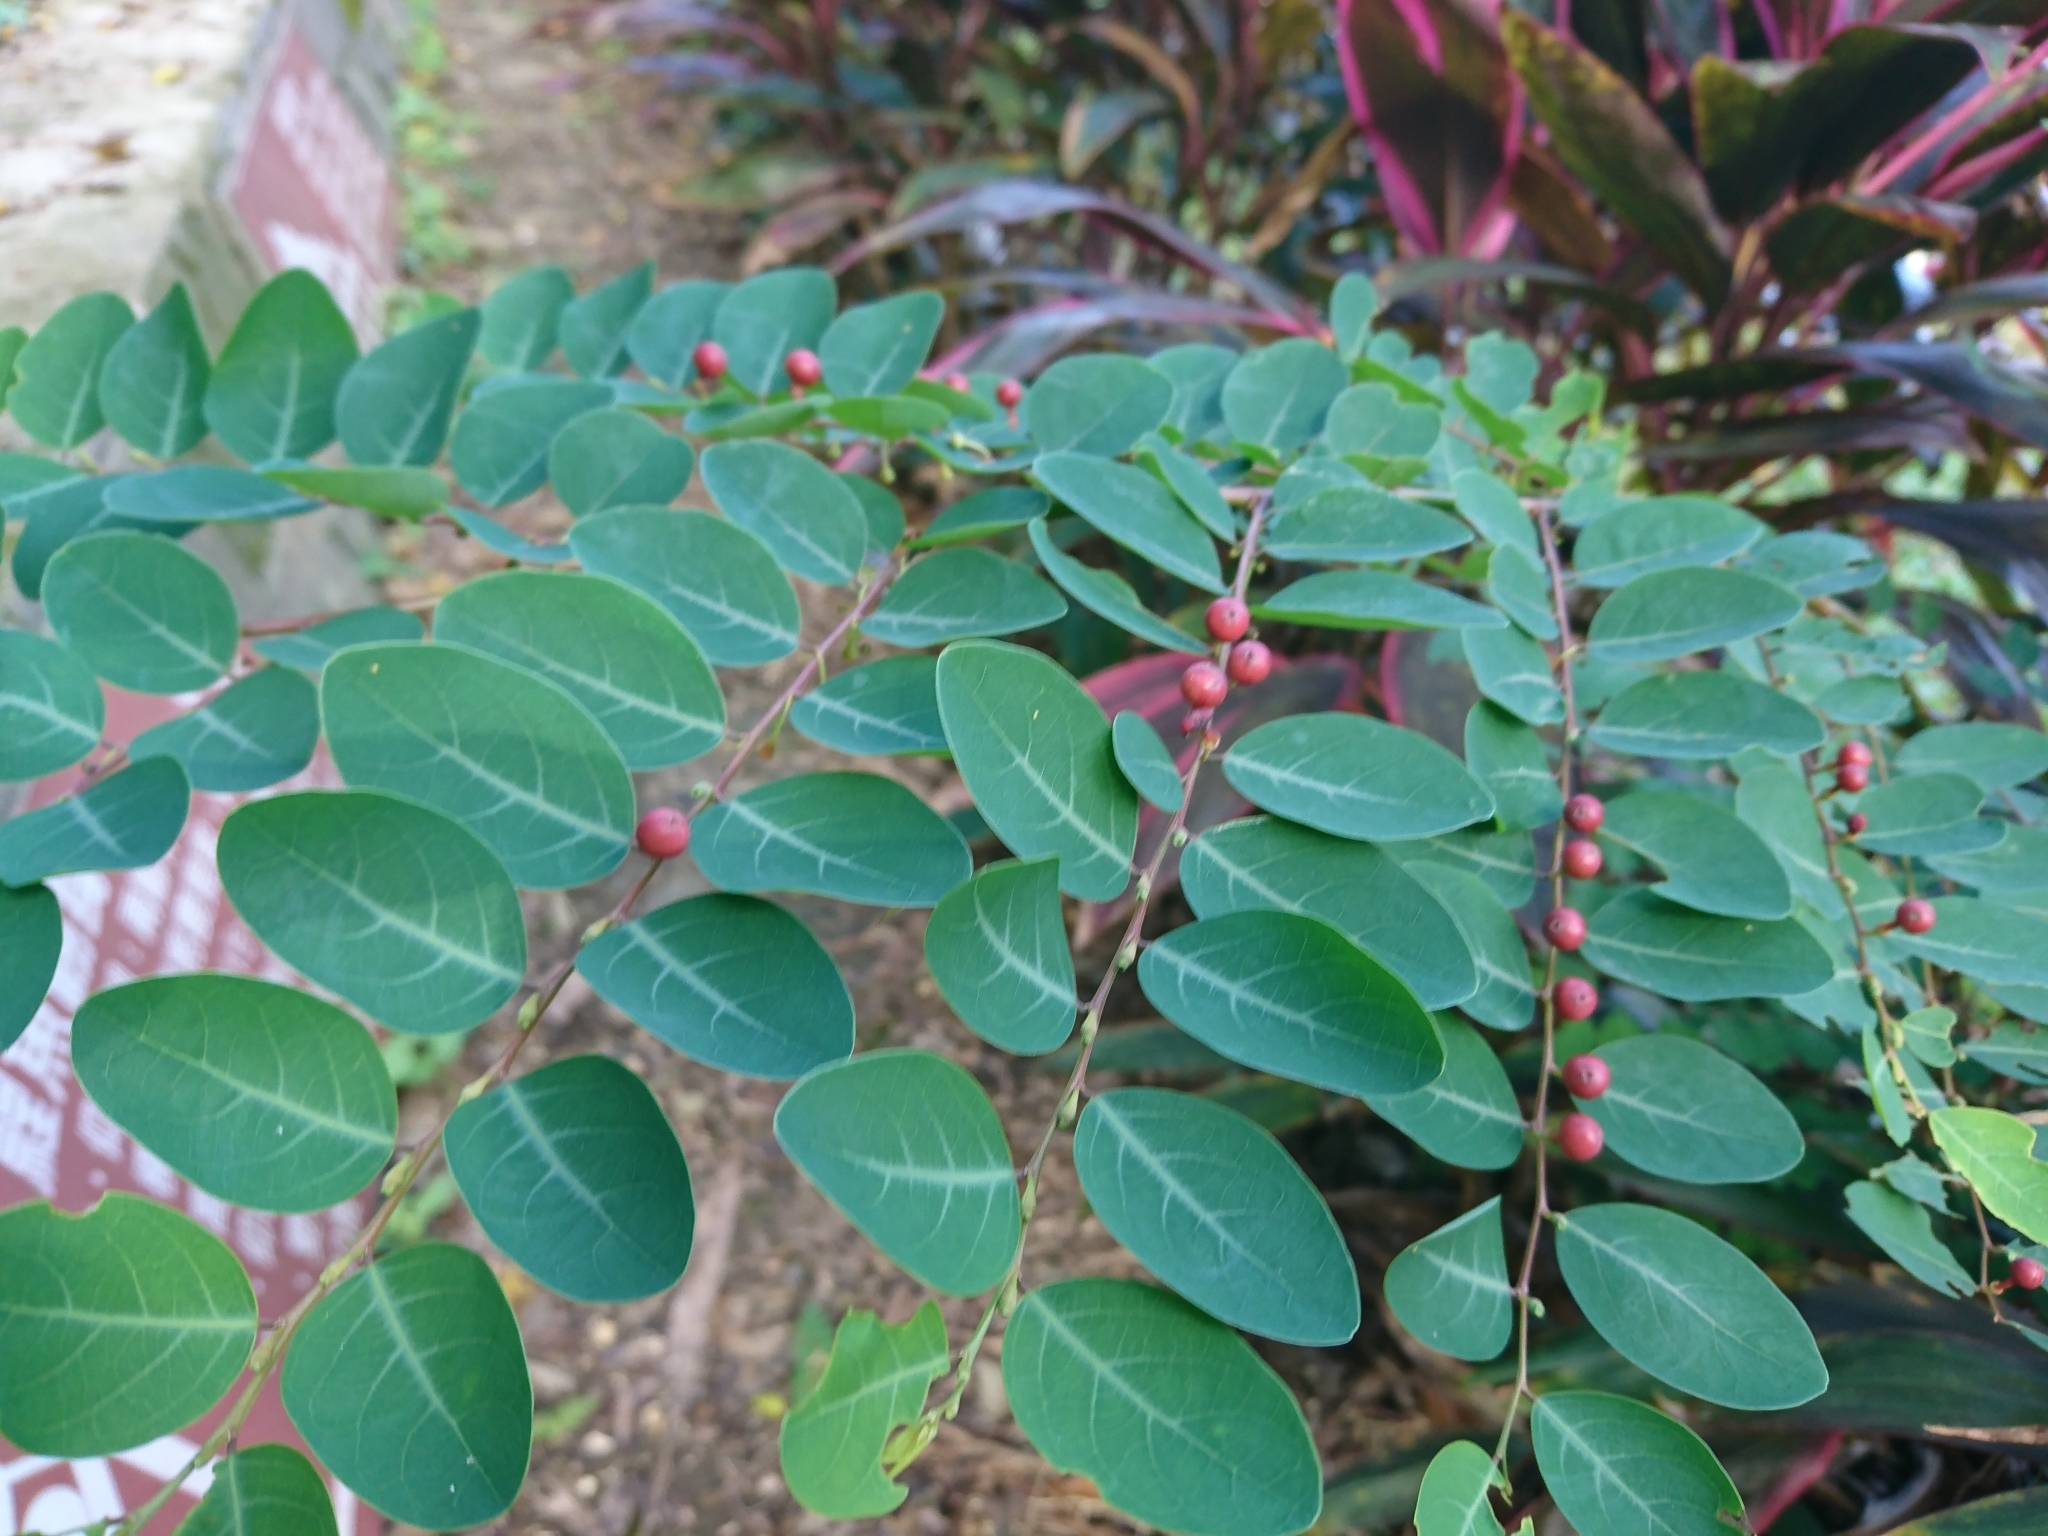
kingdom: Plantae
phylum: Tracheophyta
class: Magnoliopsida
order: Malpighiales
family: Phyllanthaceae
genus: Breynia
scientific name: Breynia vitis-idaea
